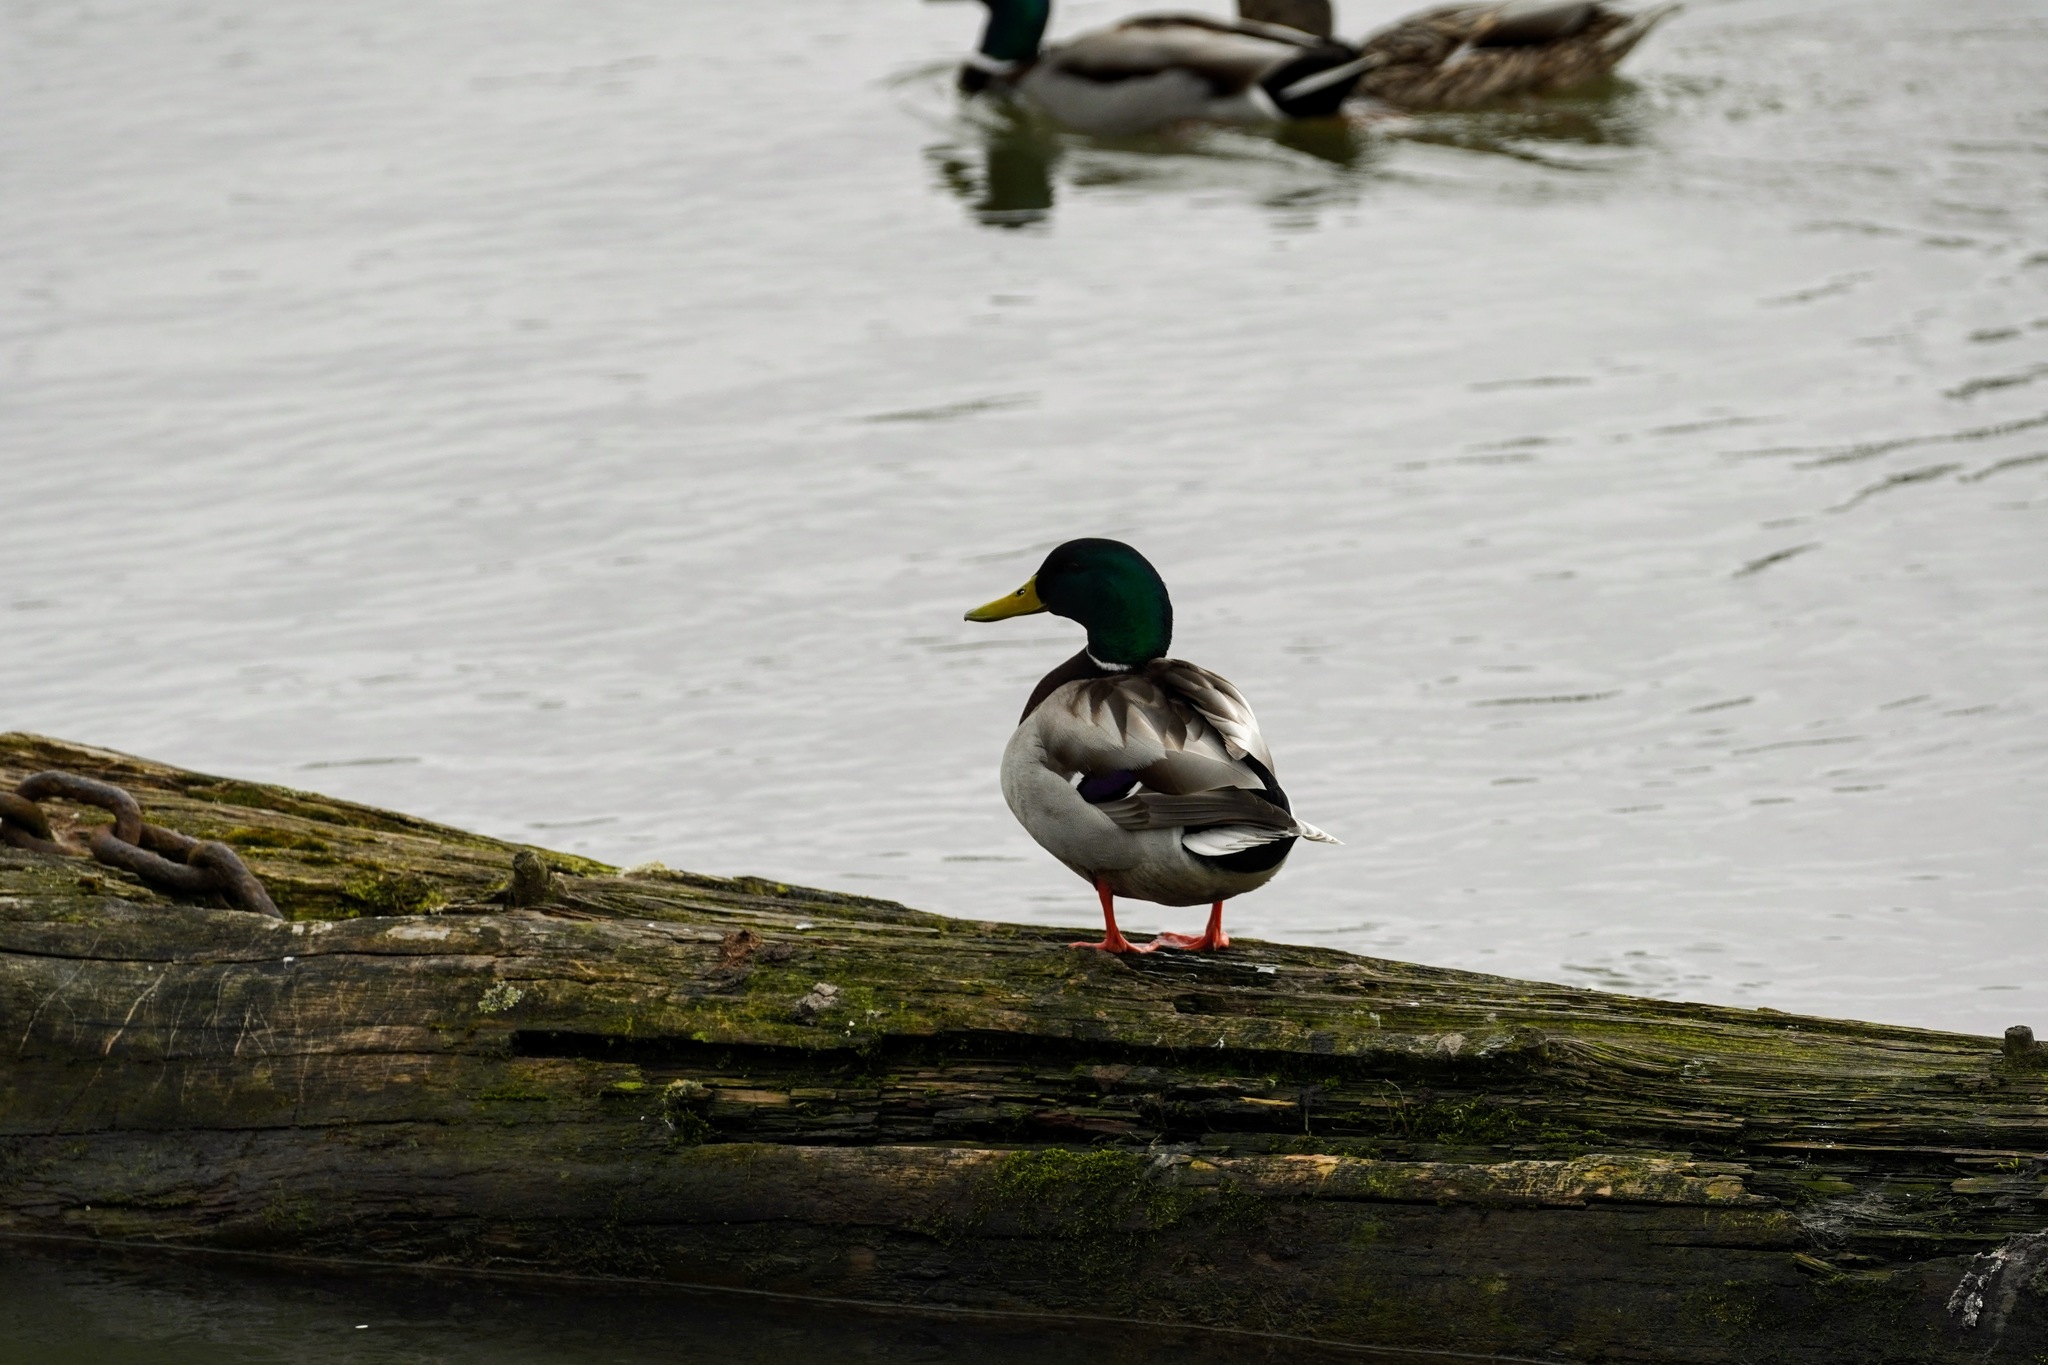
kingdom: Animalia
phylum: Chordata
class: Aves
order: Anseriformes
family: Anatidae
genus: Anas
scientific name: Anas platyrhynchos
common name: Mallard
